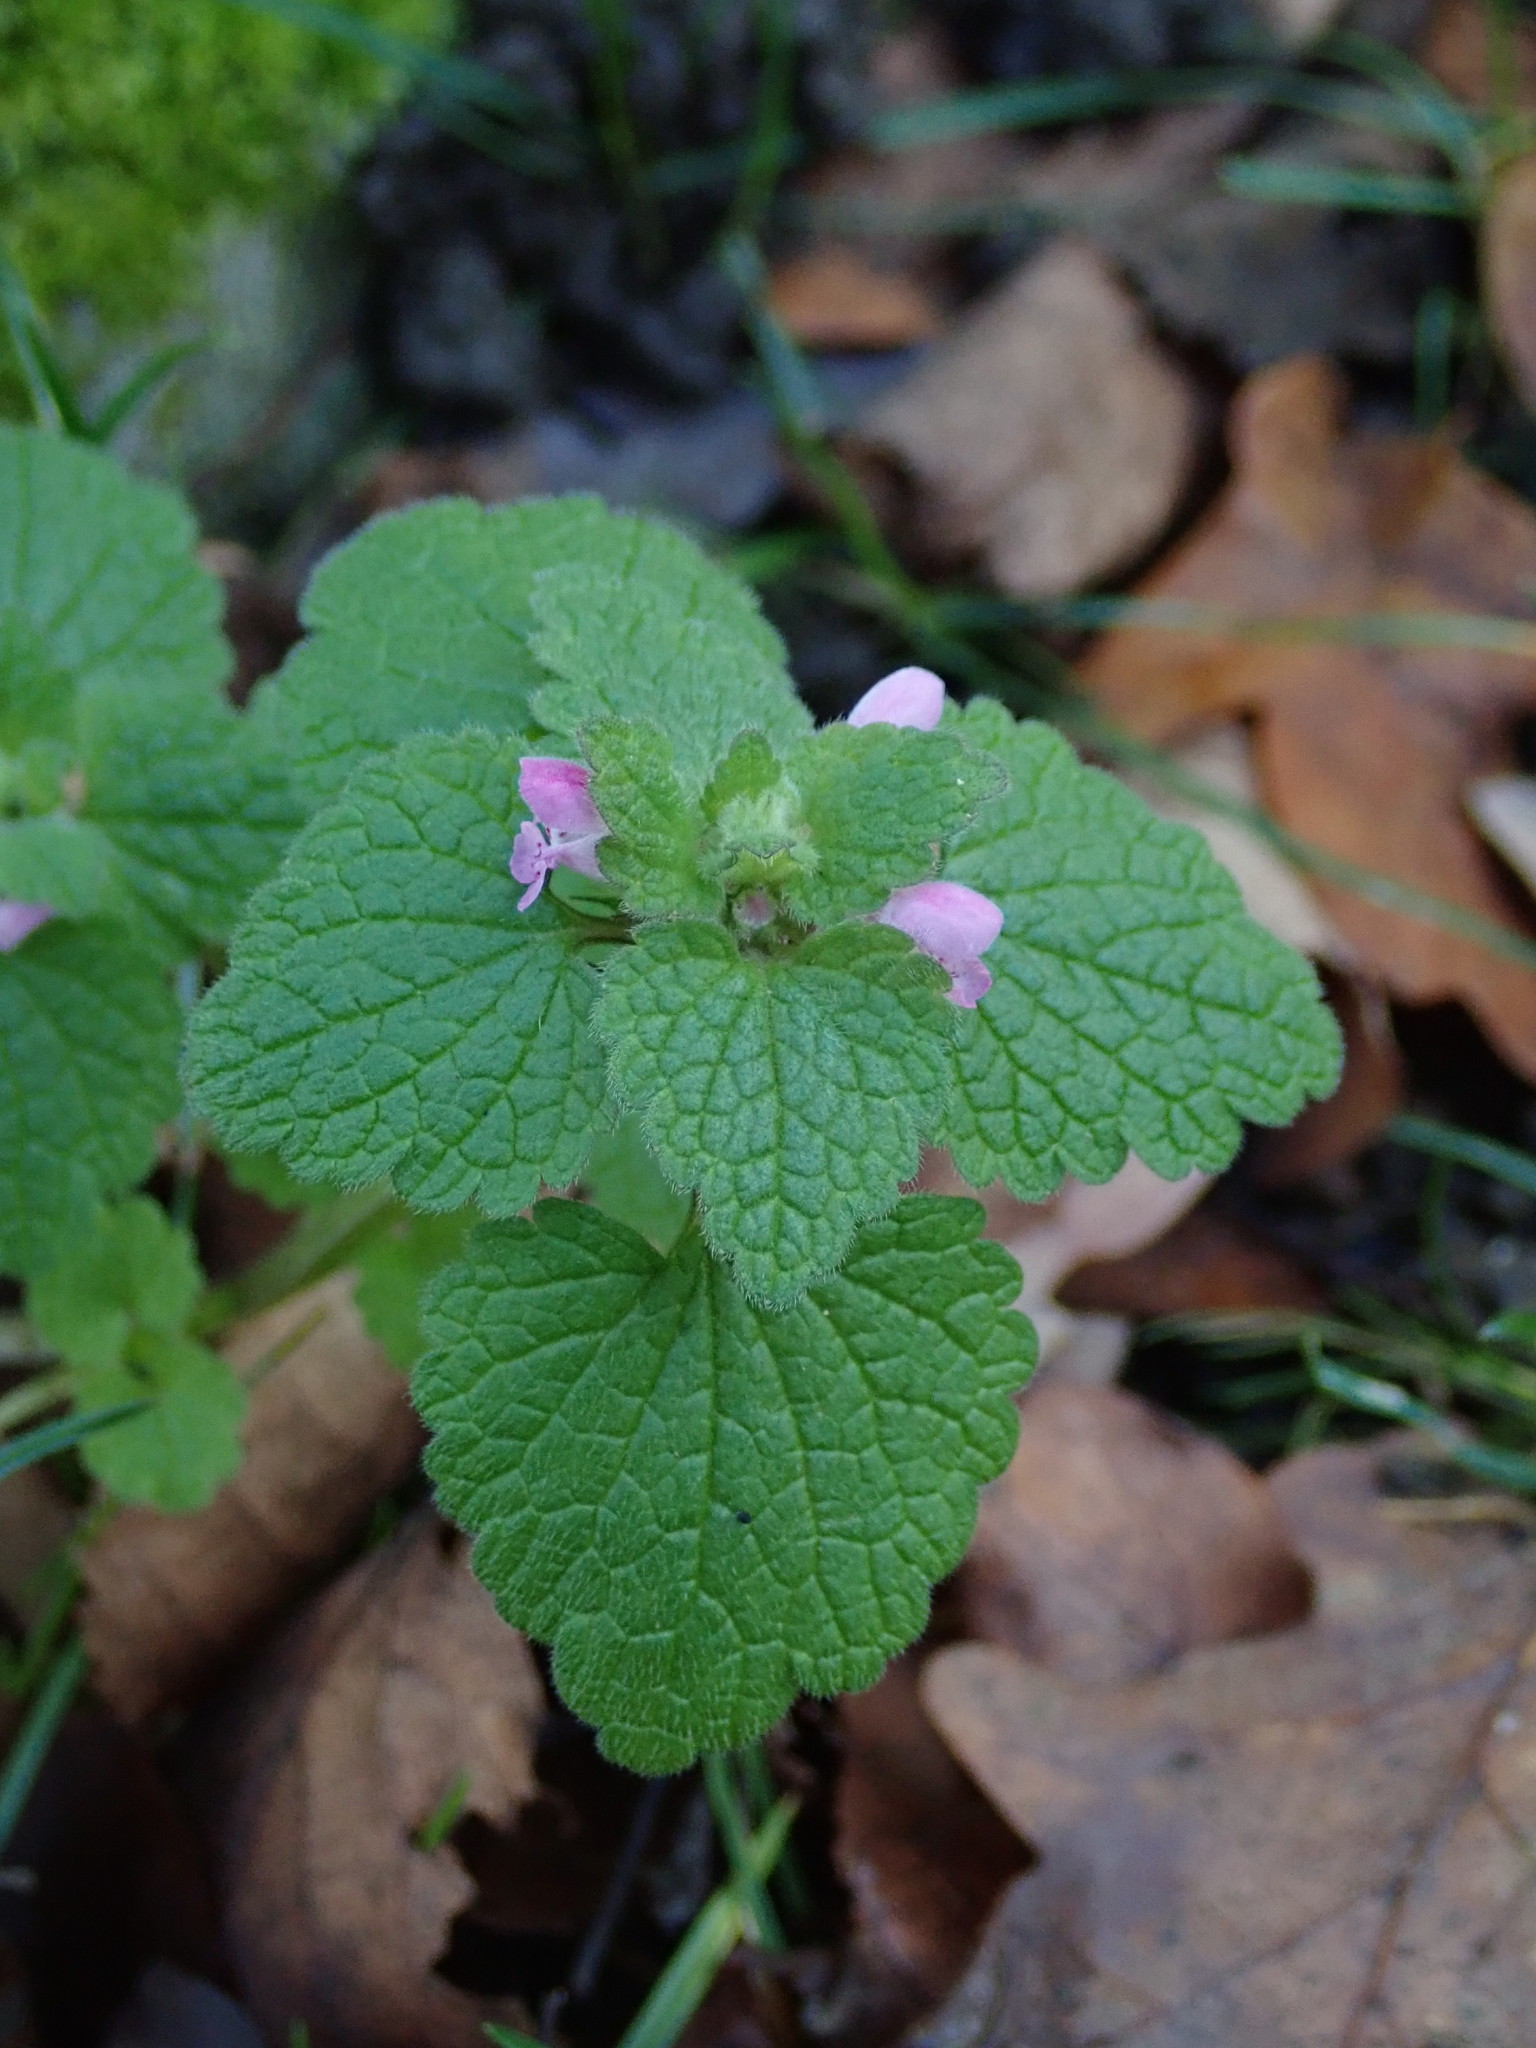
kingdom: Plantae
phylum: Tracheophyta
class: Magnoliopsida
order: Lamiales
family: Lamiaceae
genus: Lamium
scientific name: Lamium purpureum
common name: Red dead-nettle
